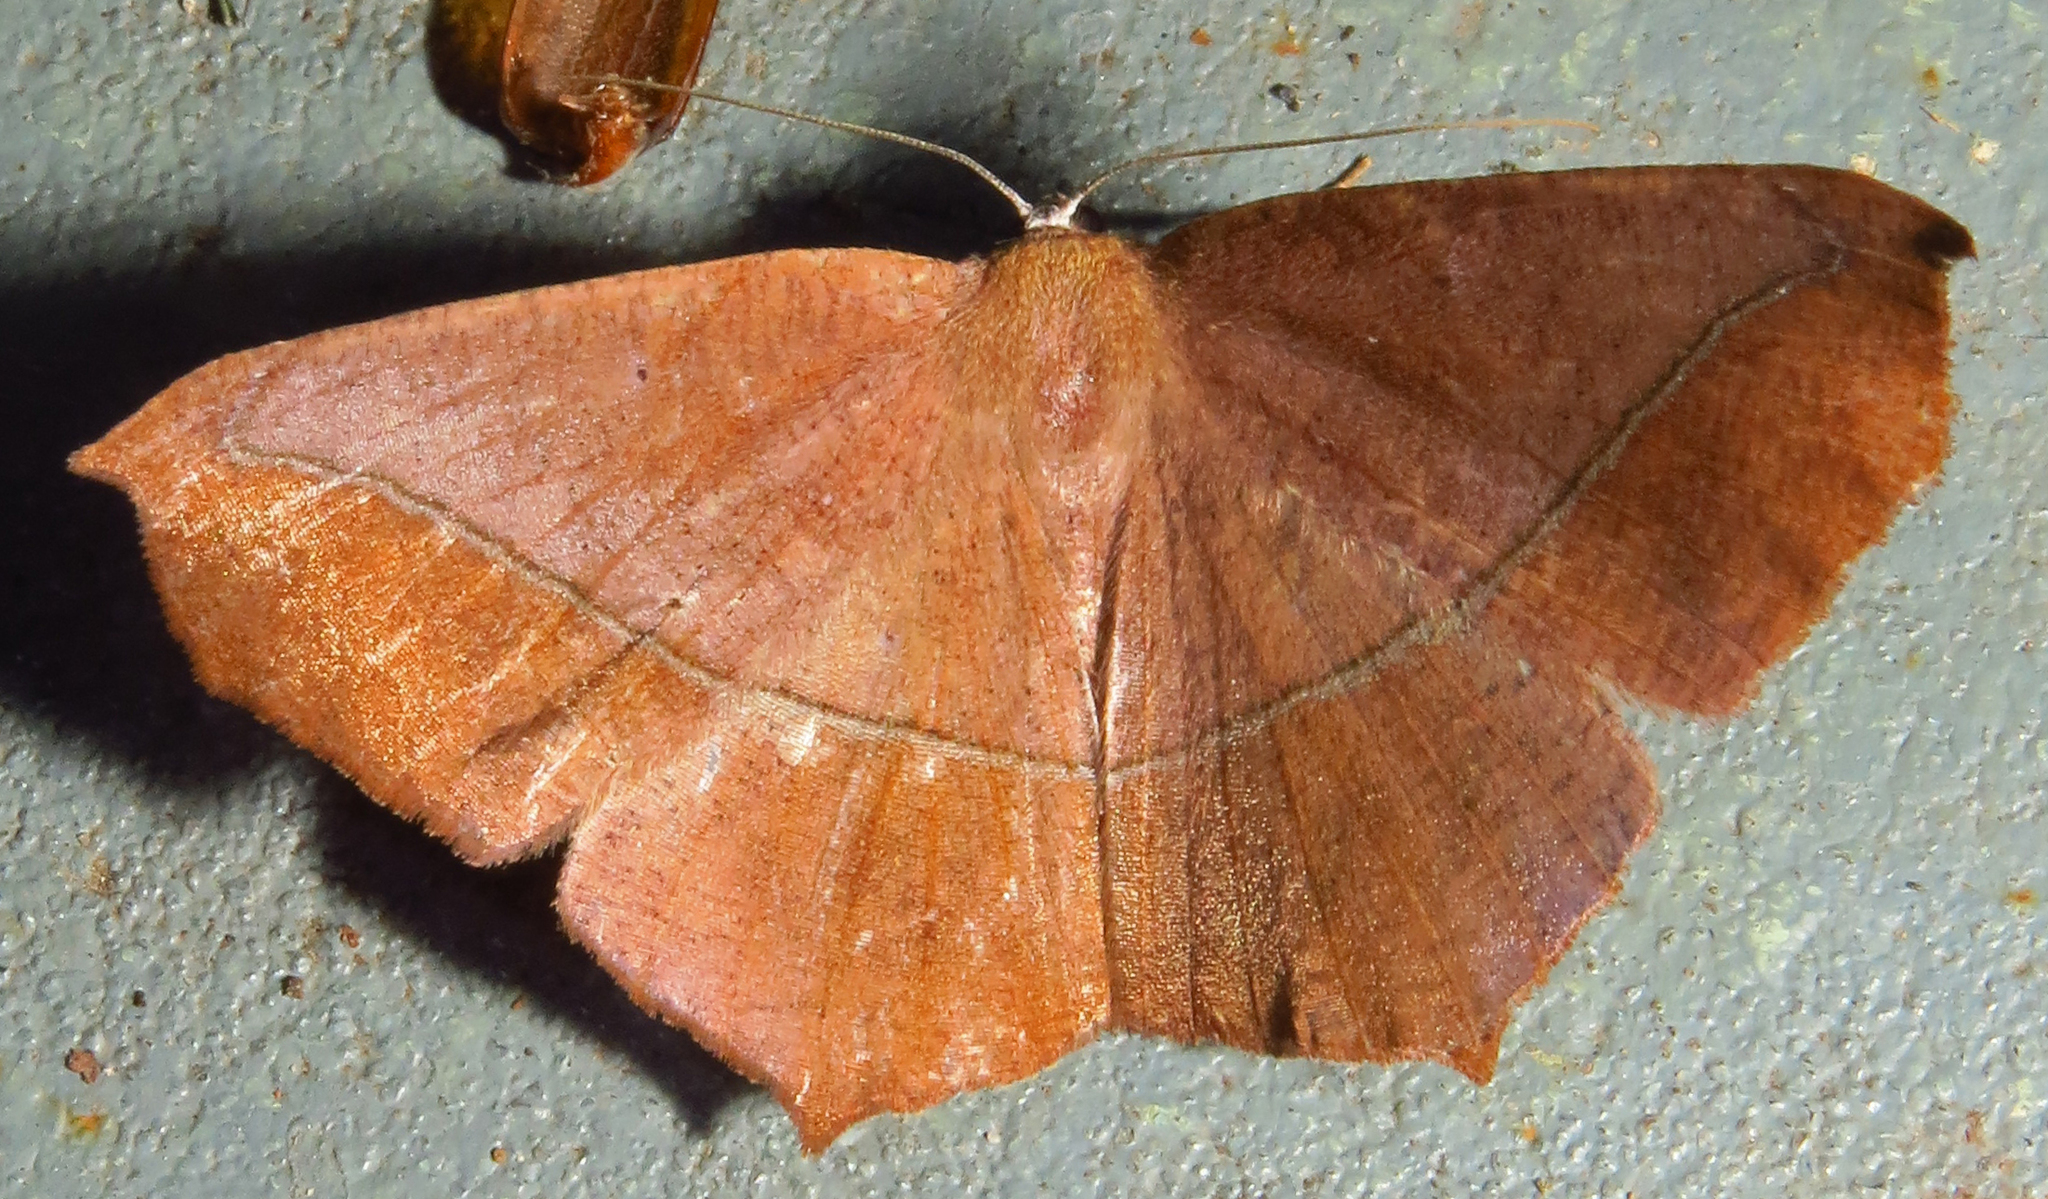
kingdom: Animalia
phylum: Arthropoda
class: Insecta
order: Lepidoptera
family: Geometridae
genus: Prochoerodes
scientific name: Prochoerodes lineola
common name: Large maple spanworm
